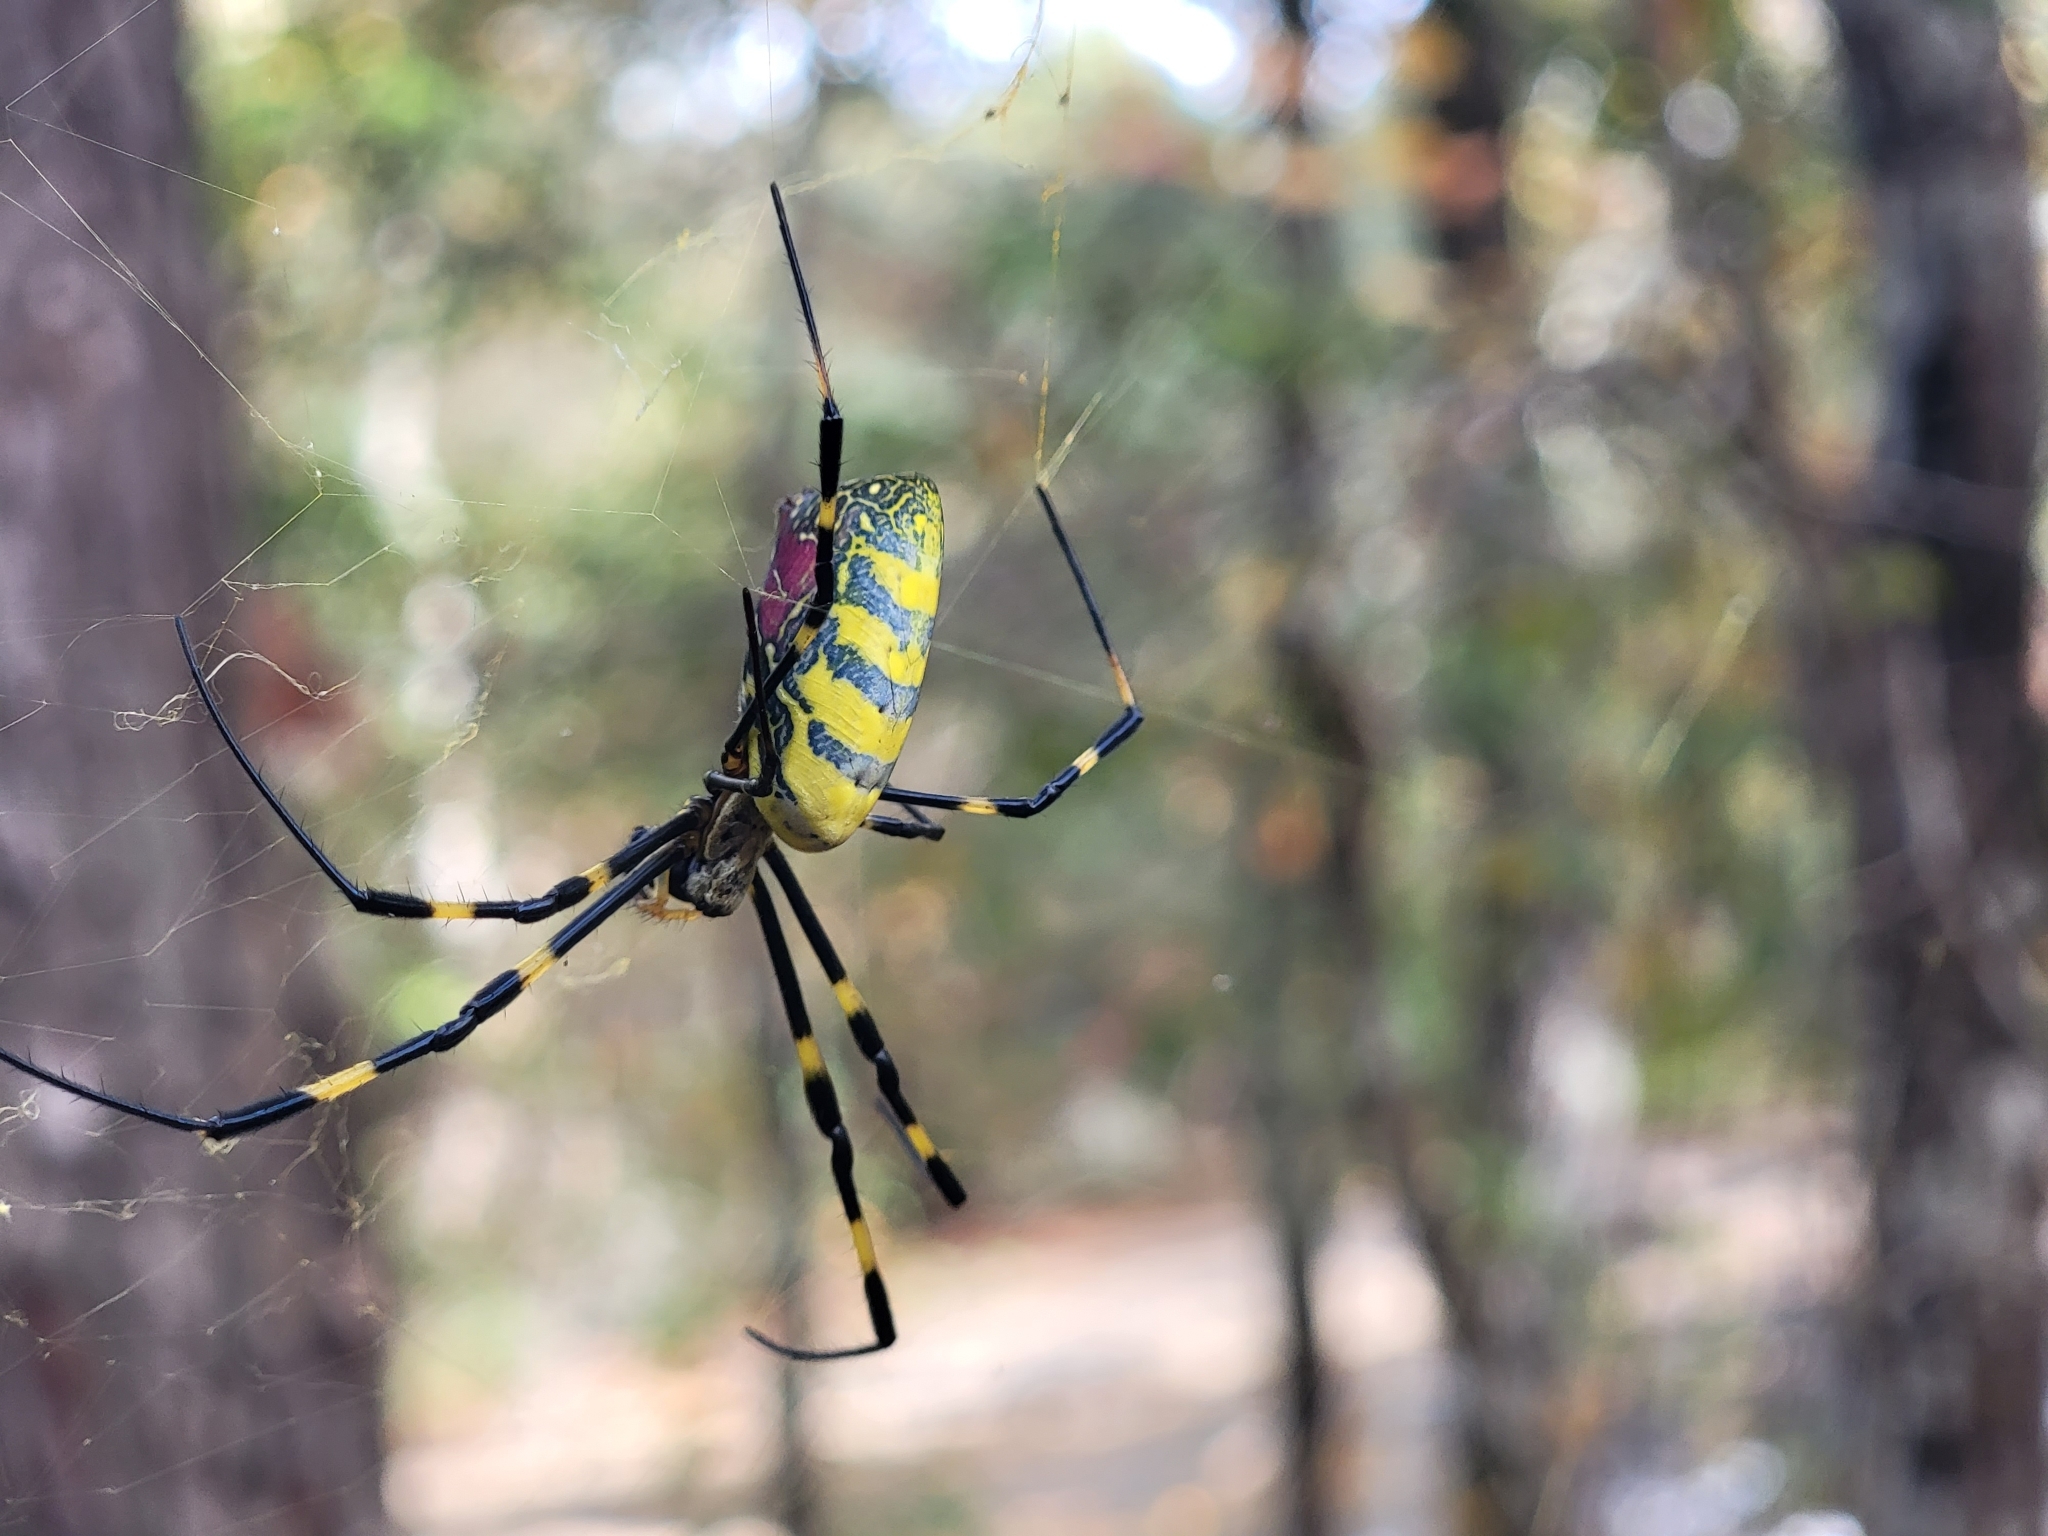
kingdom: Animalia
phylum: Arthropoda
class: Arachnida
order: Araneae
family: Araneidae
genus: Trichonephila
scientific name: Trichonephila clavata
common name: Jorō spider
